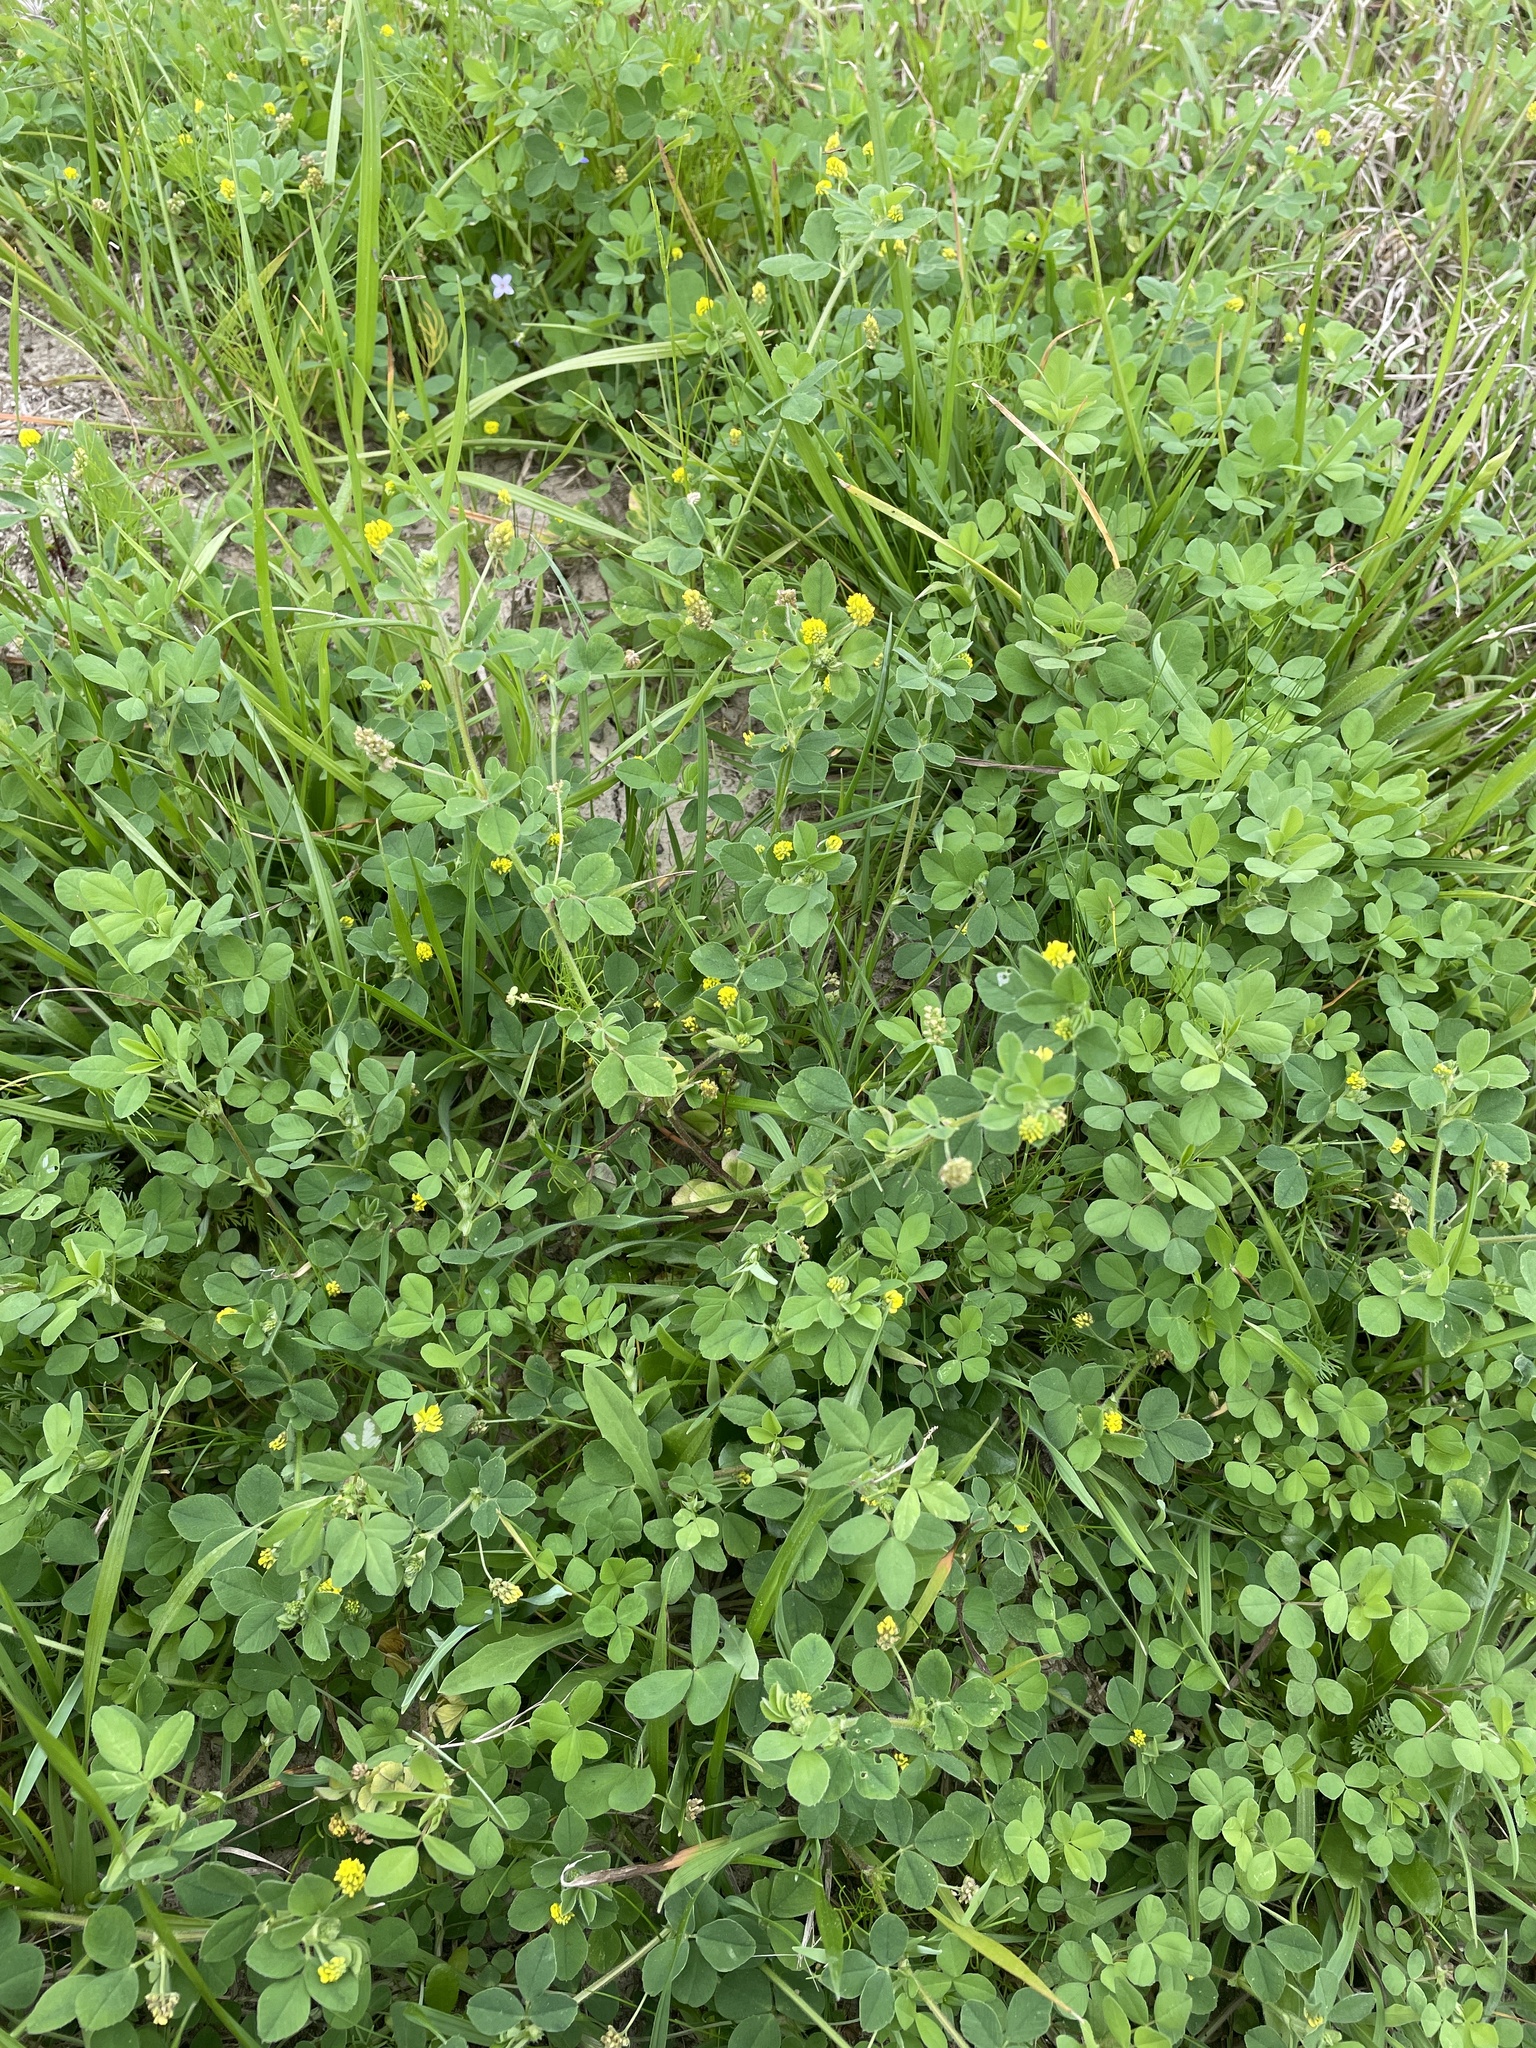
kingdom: Plantae
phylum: Tracheophyta
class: Magnoliopsida
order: Fabales
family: Fabaceae
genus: Medicago
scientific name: Medicago lupulina
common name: Black medick
